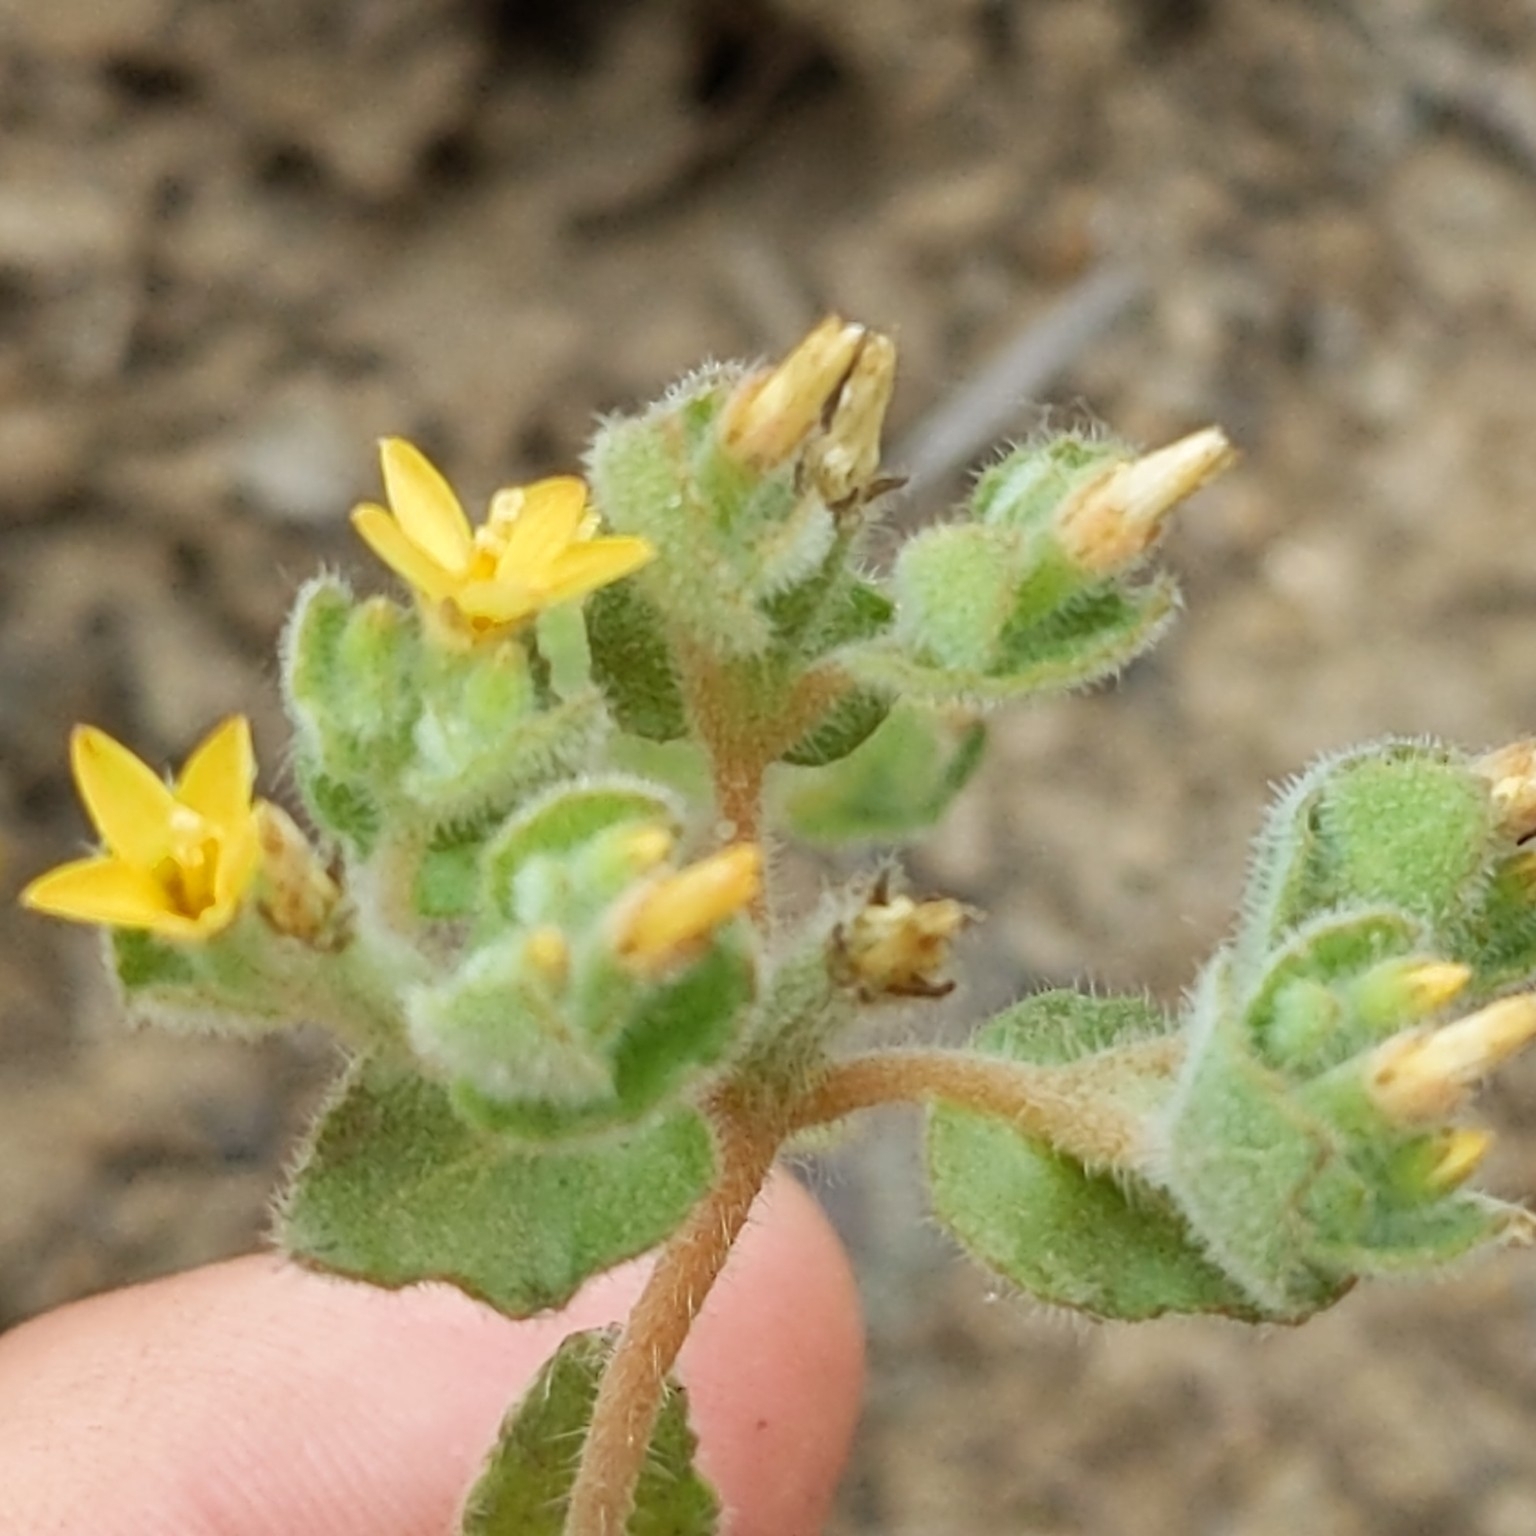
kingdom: Plantae
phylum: Tracheophyta
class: Magnoliopsida
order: Cornales
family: Loasaceae
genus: Mentzelia
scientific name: Mentzelia micrantha
